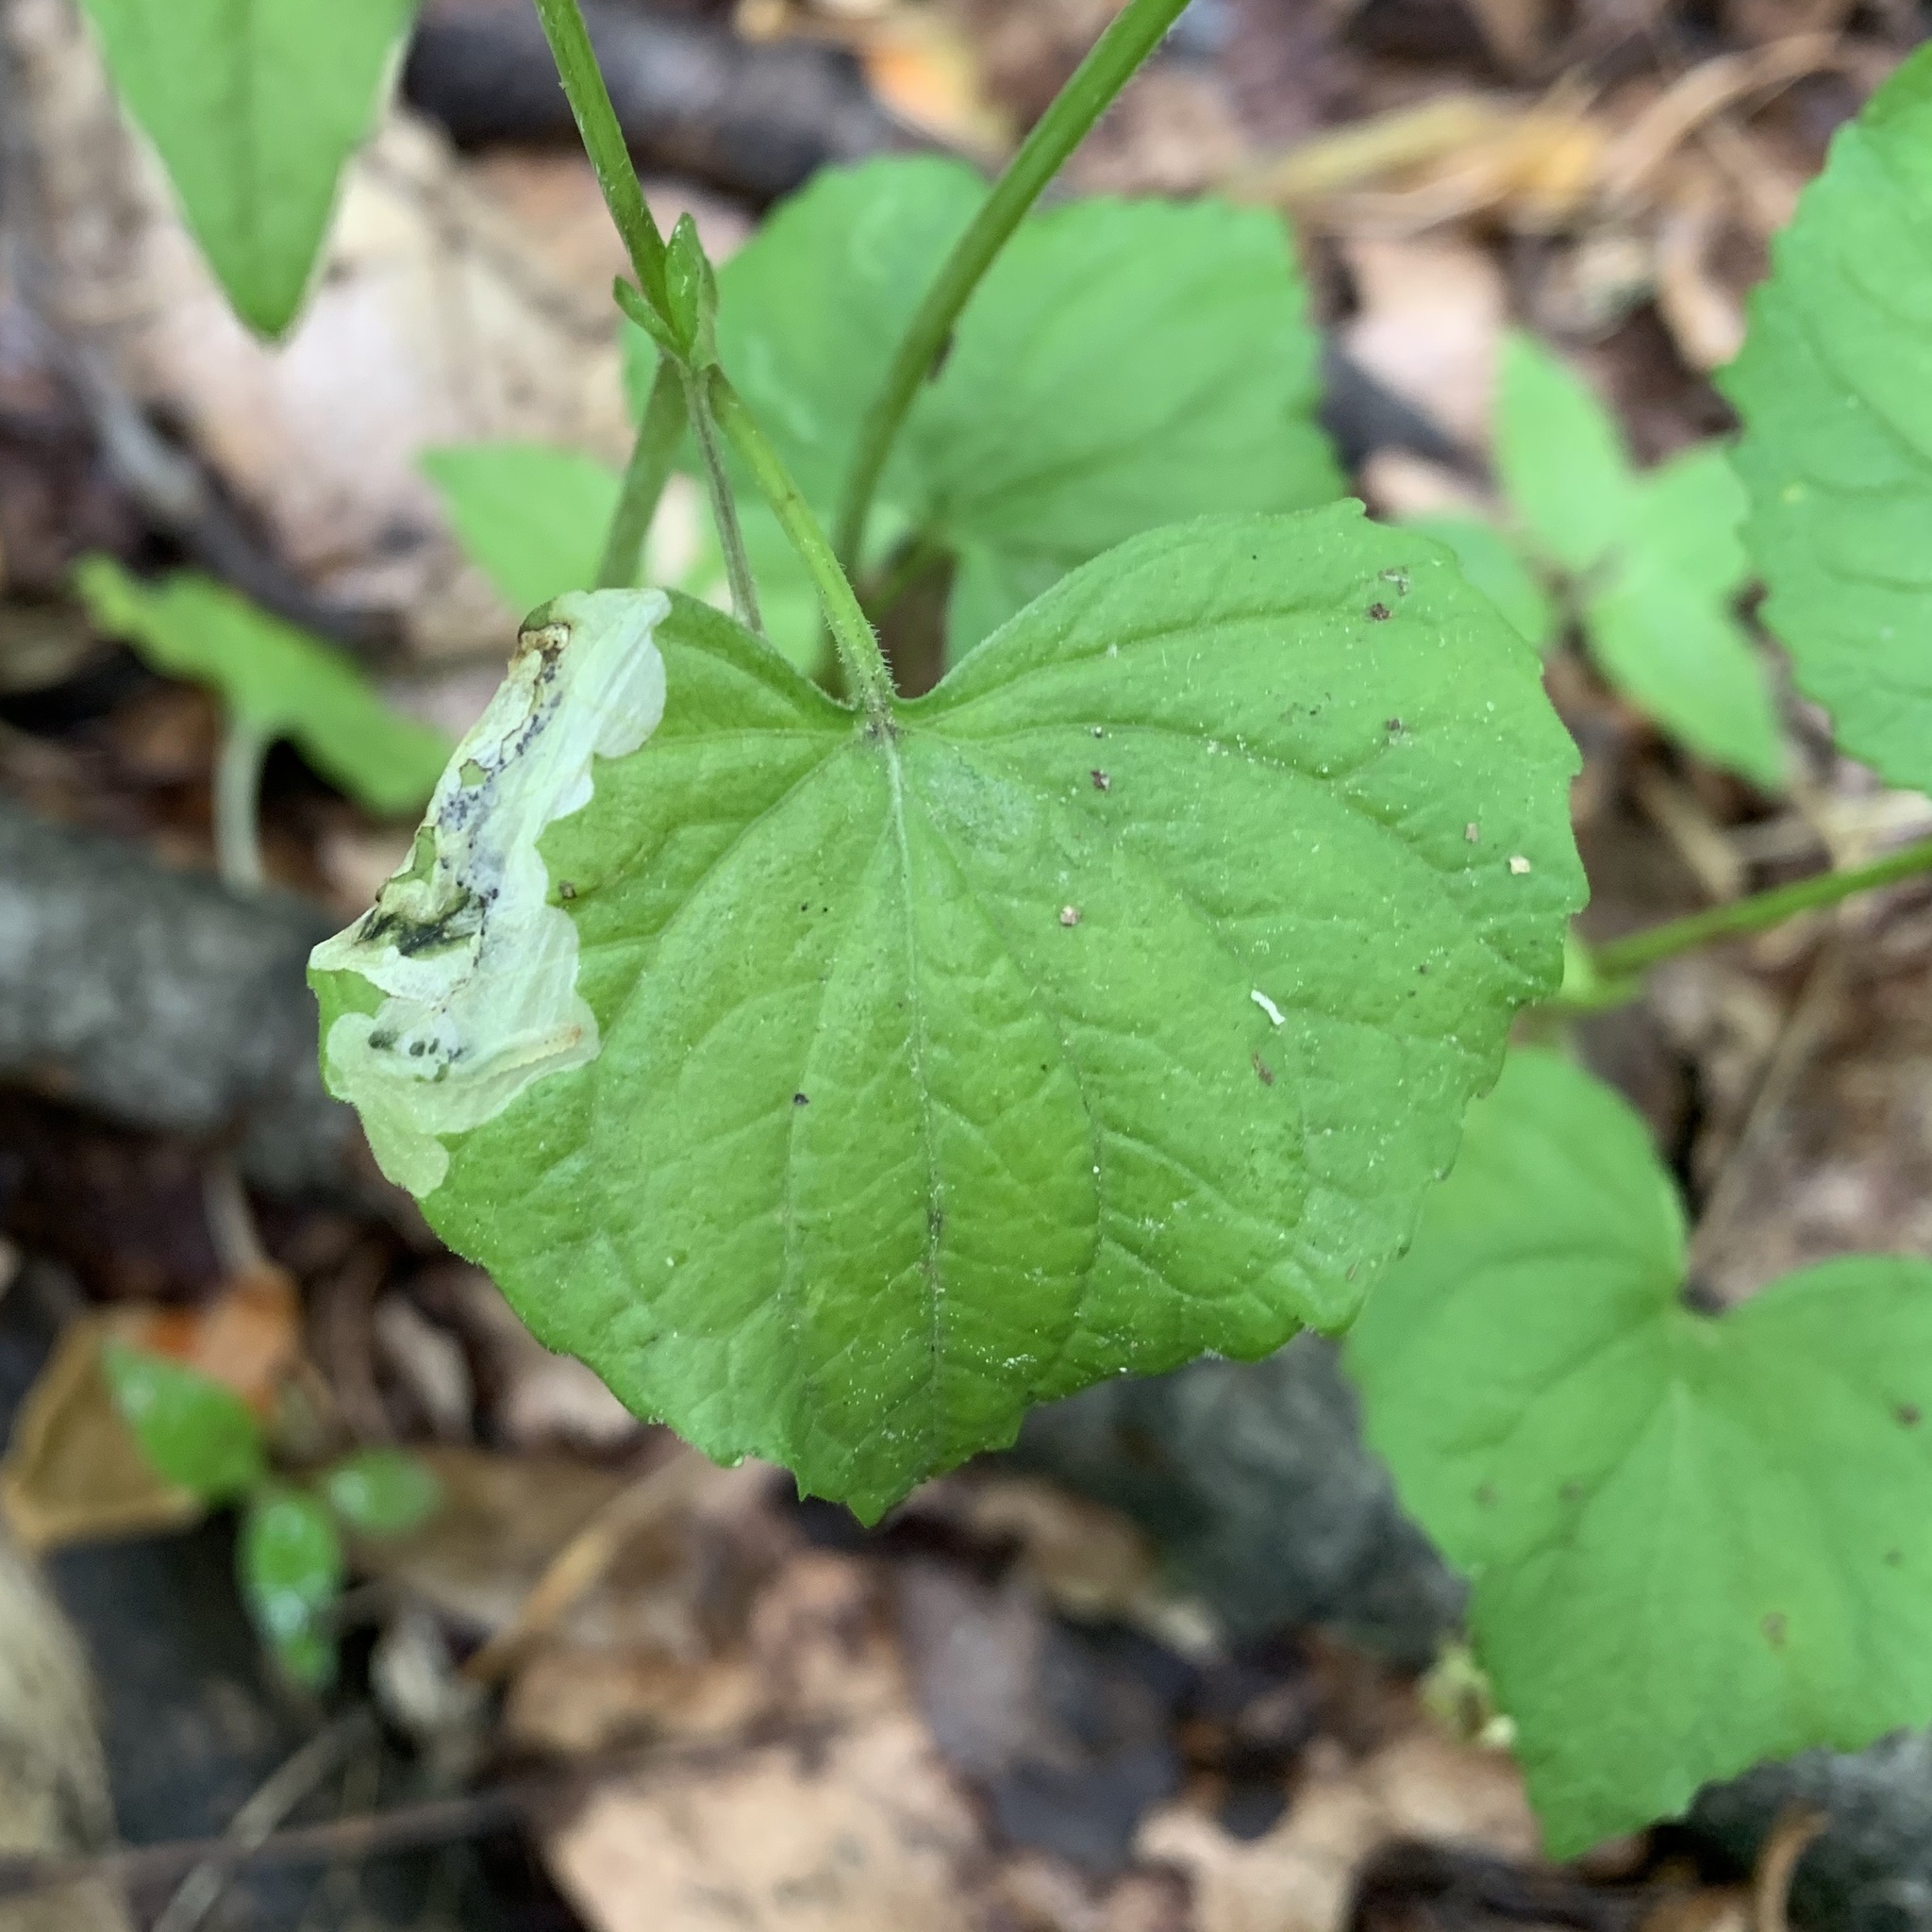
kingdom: Animalia
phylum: Arthropoda
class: Insecta
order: Hymenoptera
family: Tenthredinidae
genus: Nefusa
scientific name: Nefusa ambigua
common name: Violet leafmining sawfly
